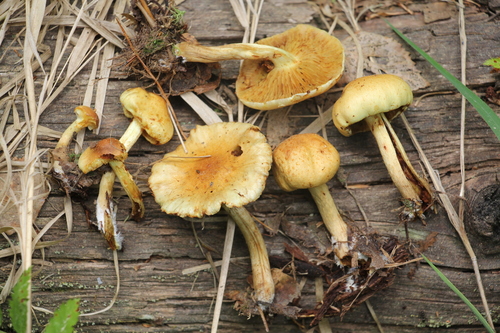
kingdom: Fungi
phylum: Basidiomycota
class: Agaricomycetes
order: Agaricales
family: Strophariaceae
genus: Pholiota
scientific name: Pholiota elegans
